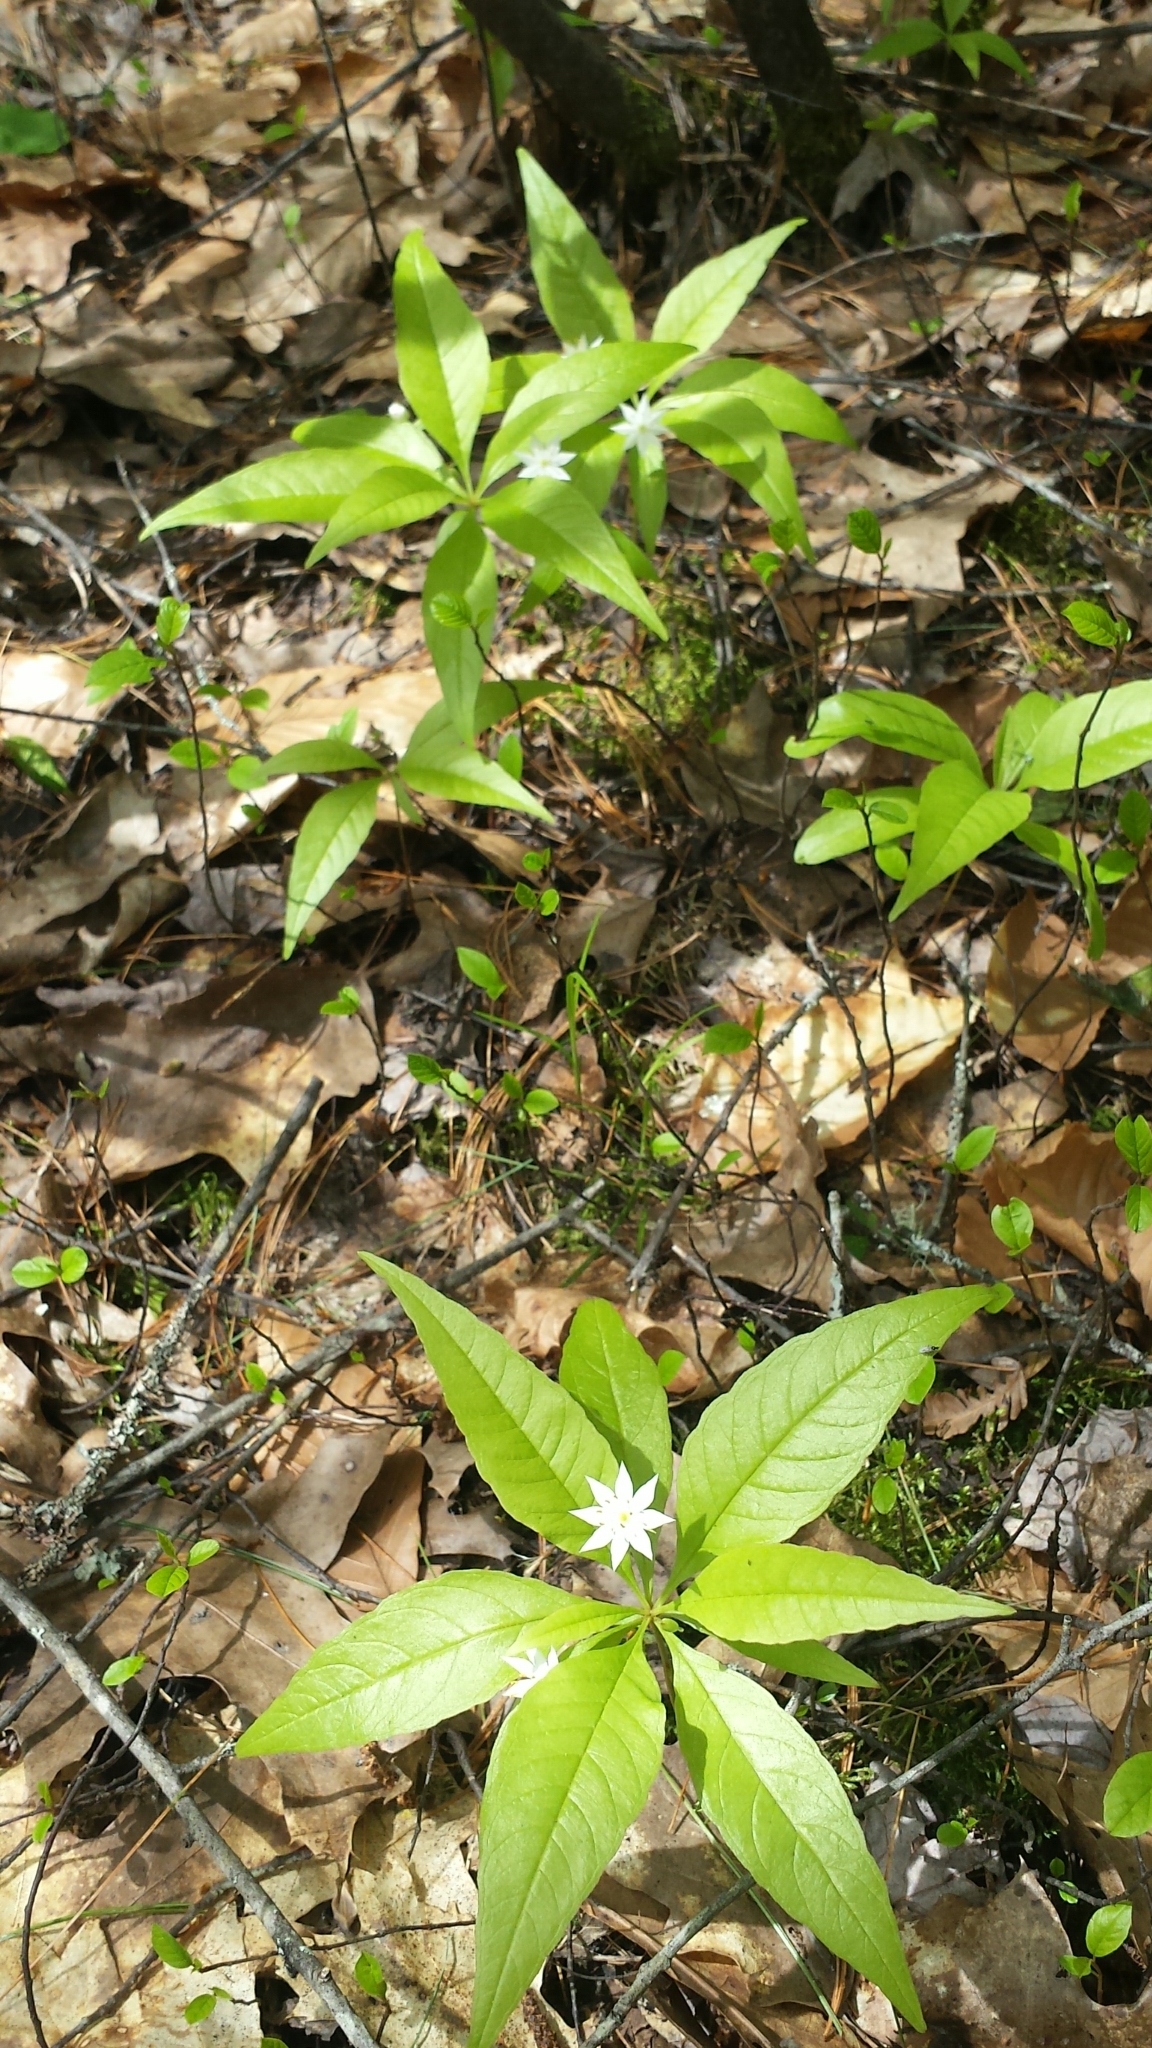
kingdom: Plantae
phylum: Tracheophyta
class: Magnoliopsida
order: Ericales
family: Primulaceae
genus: Lysimachia
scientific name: Lysimachia borealis
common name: American starflower
